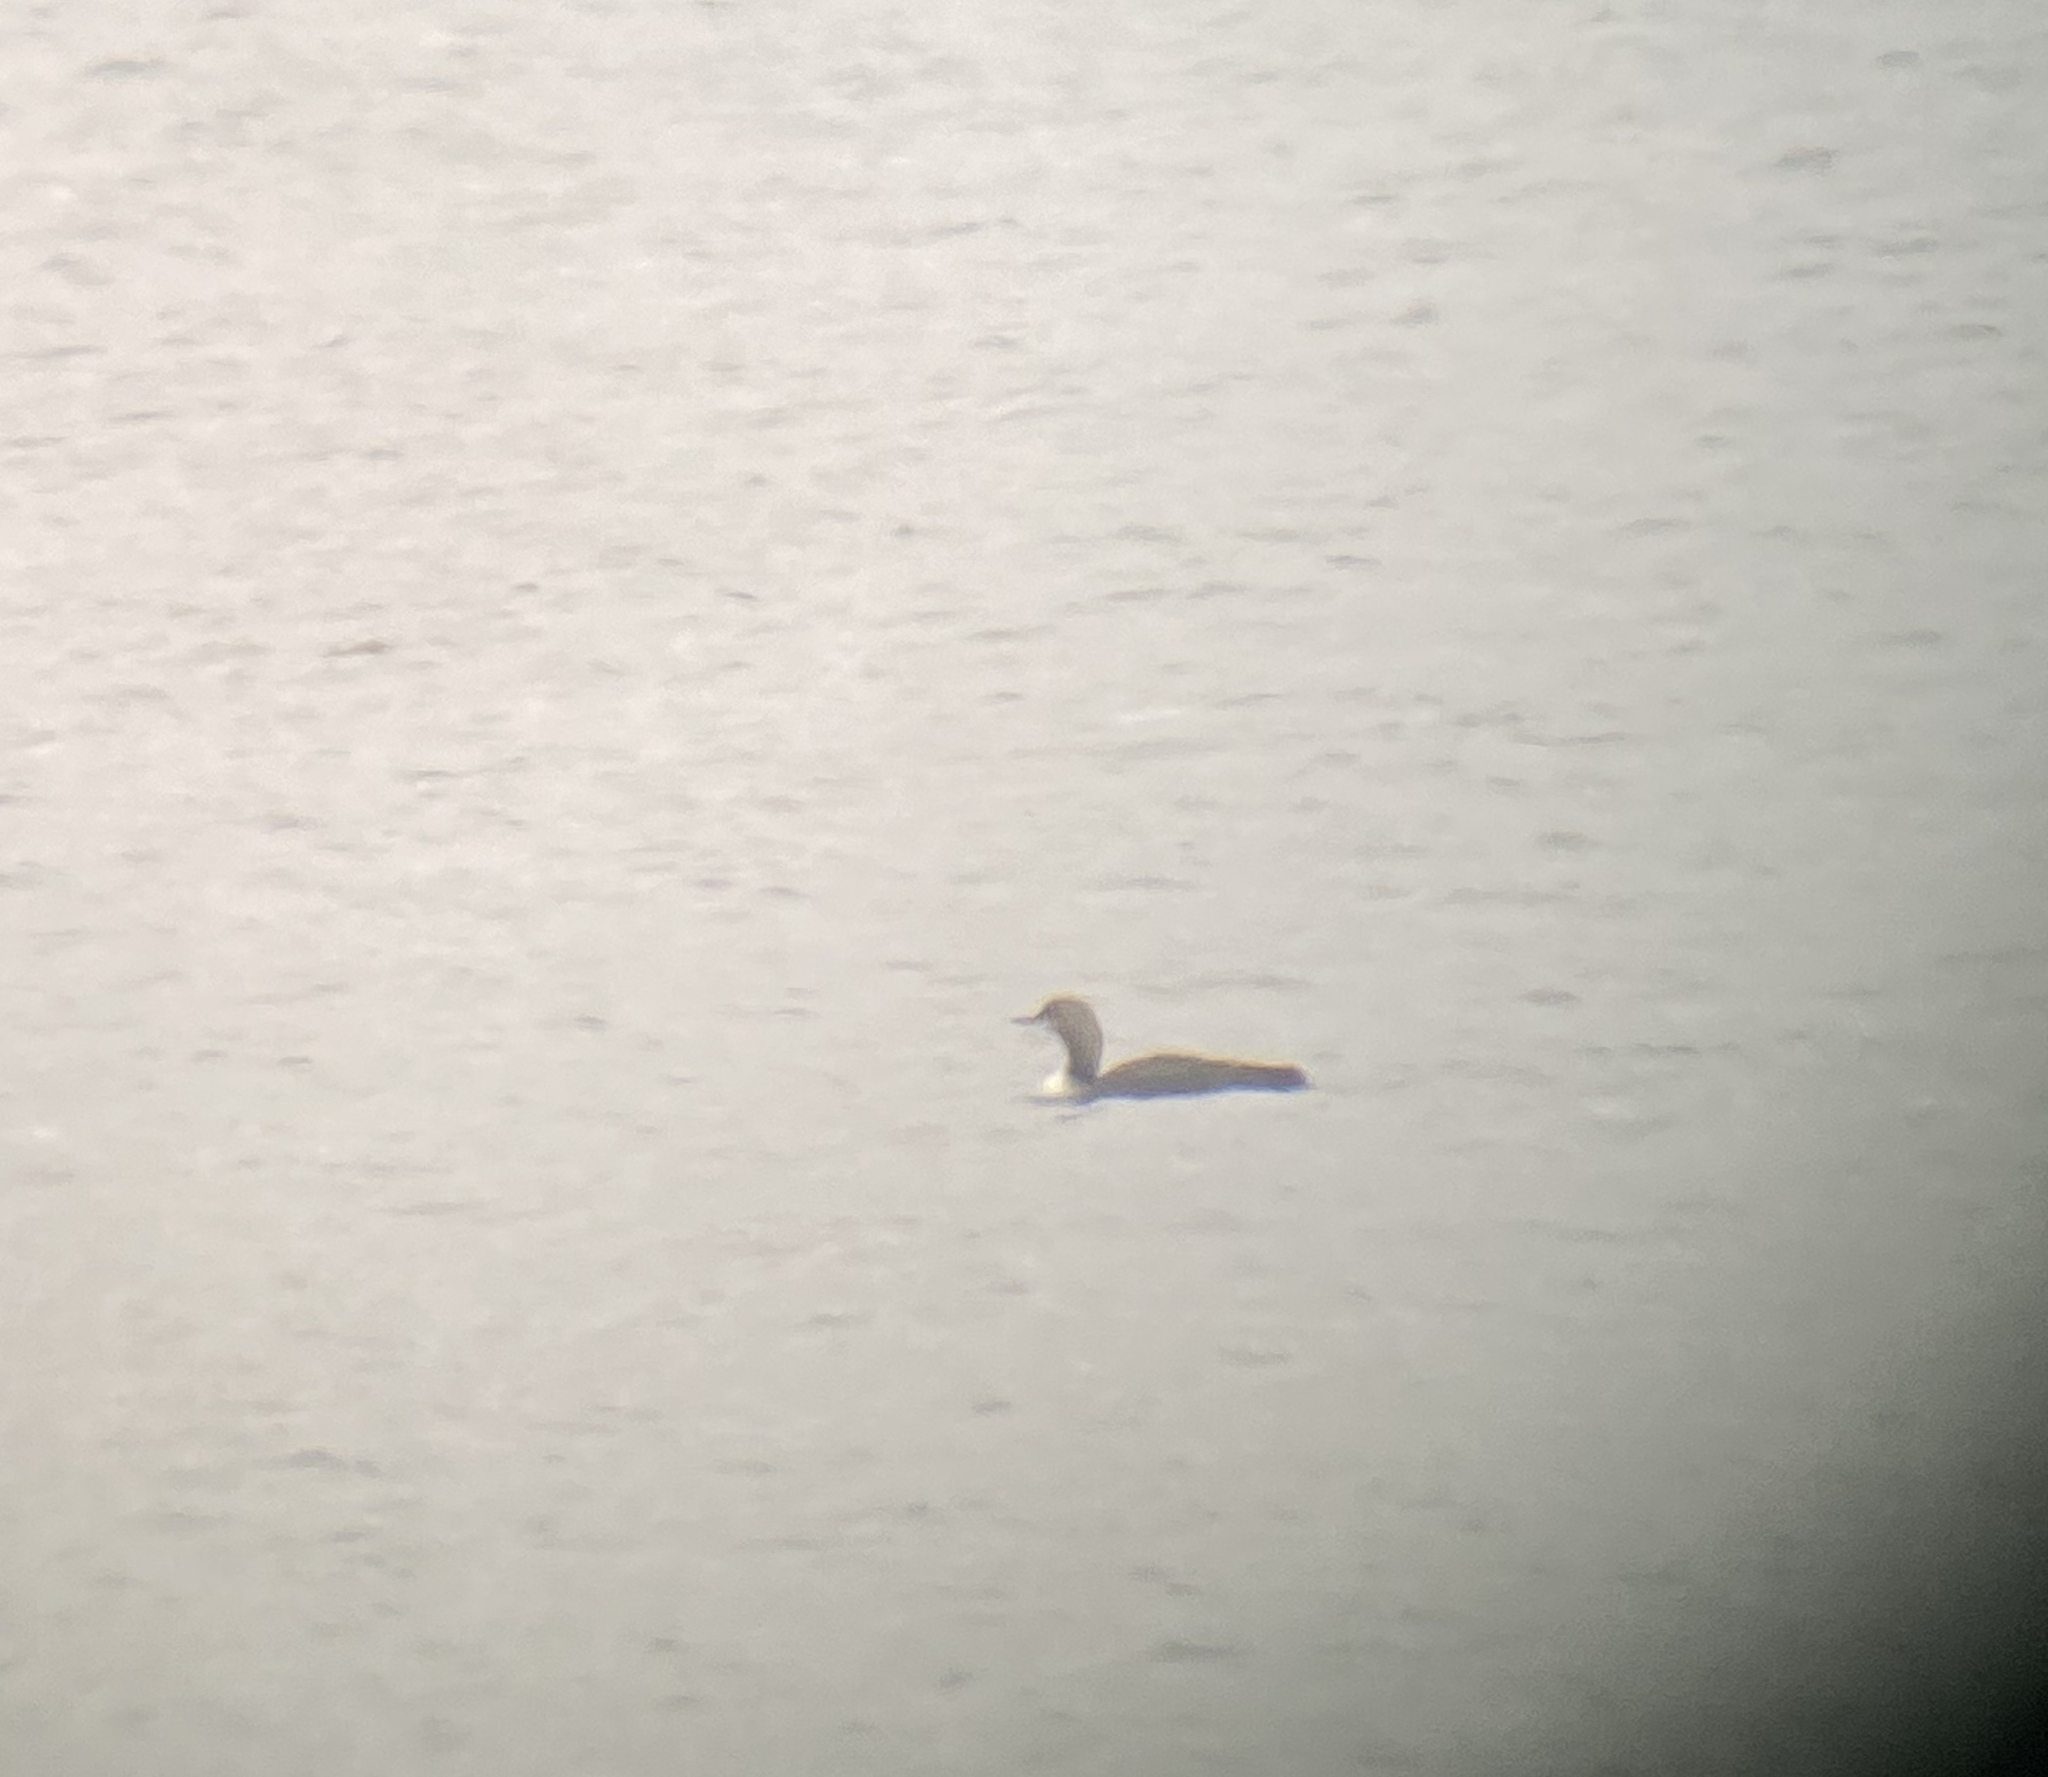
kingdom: Animalia
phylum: Chordata
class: Aves
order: Gaviiformes
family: Gaviidae
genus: Gavia
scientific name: Gavia pacifica
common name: Pacific loon
